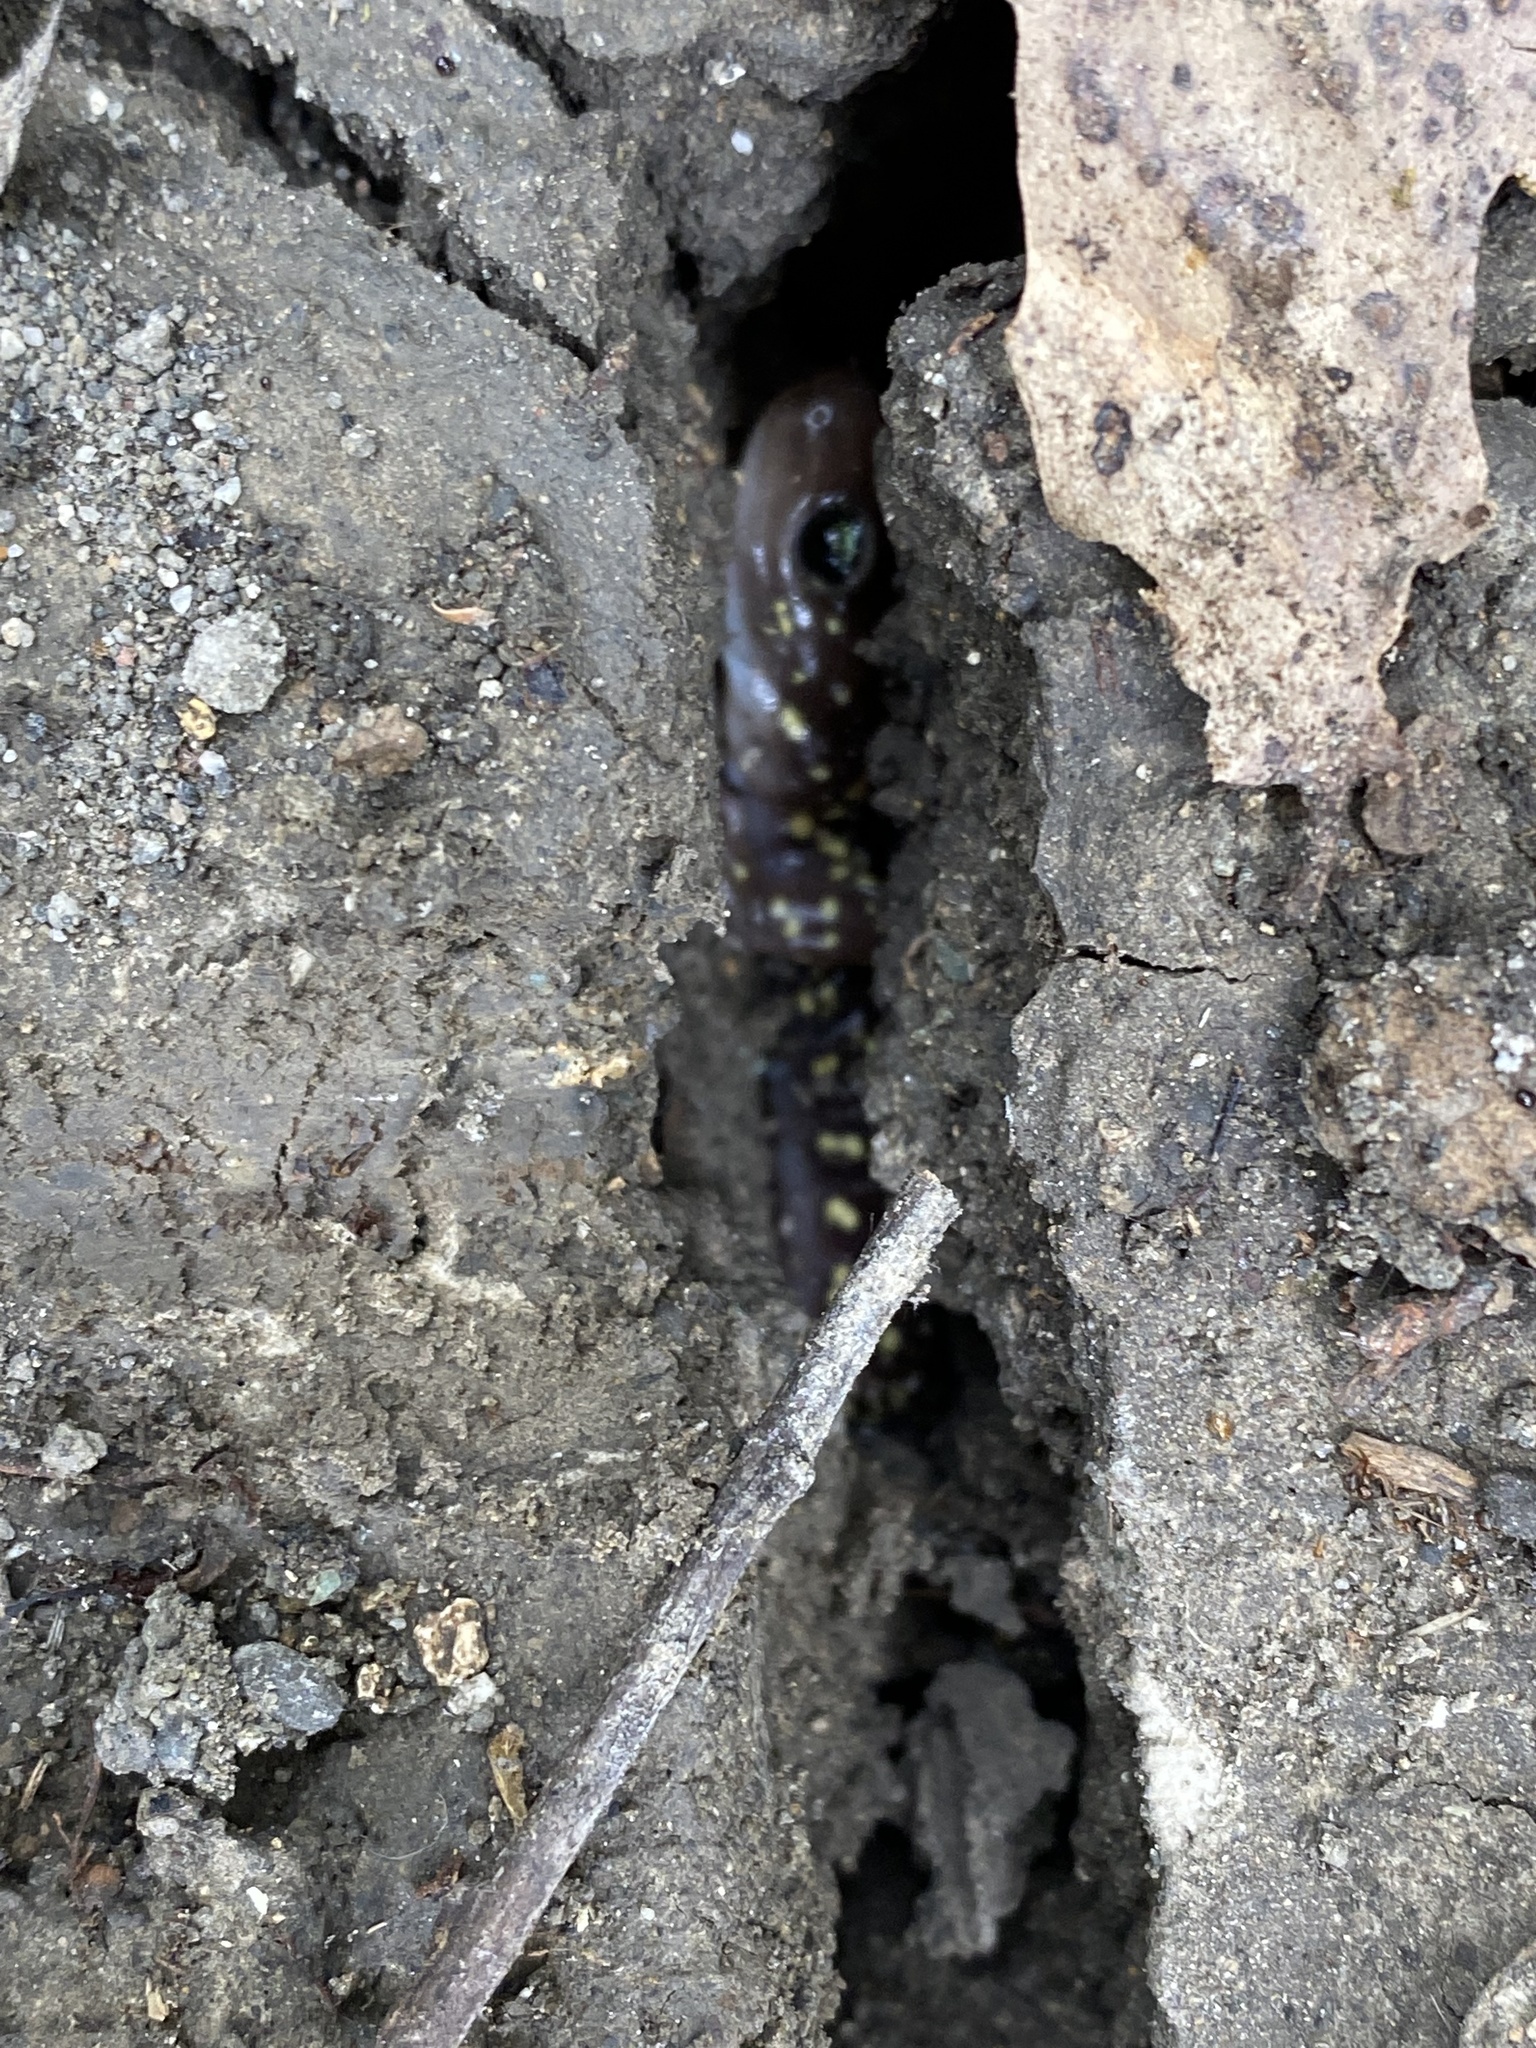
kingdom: Animalia
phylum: Chordata
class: Amphibia
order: Caudata
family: Plethodontidae
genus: Aneides
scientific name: Aneides lugubris
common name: Arboreal salamander
